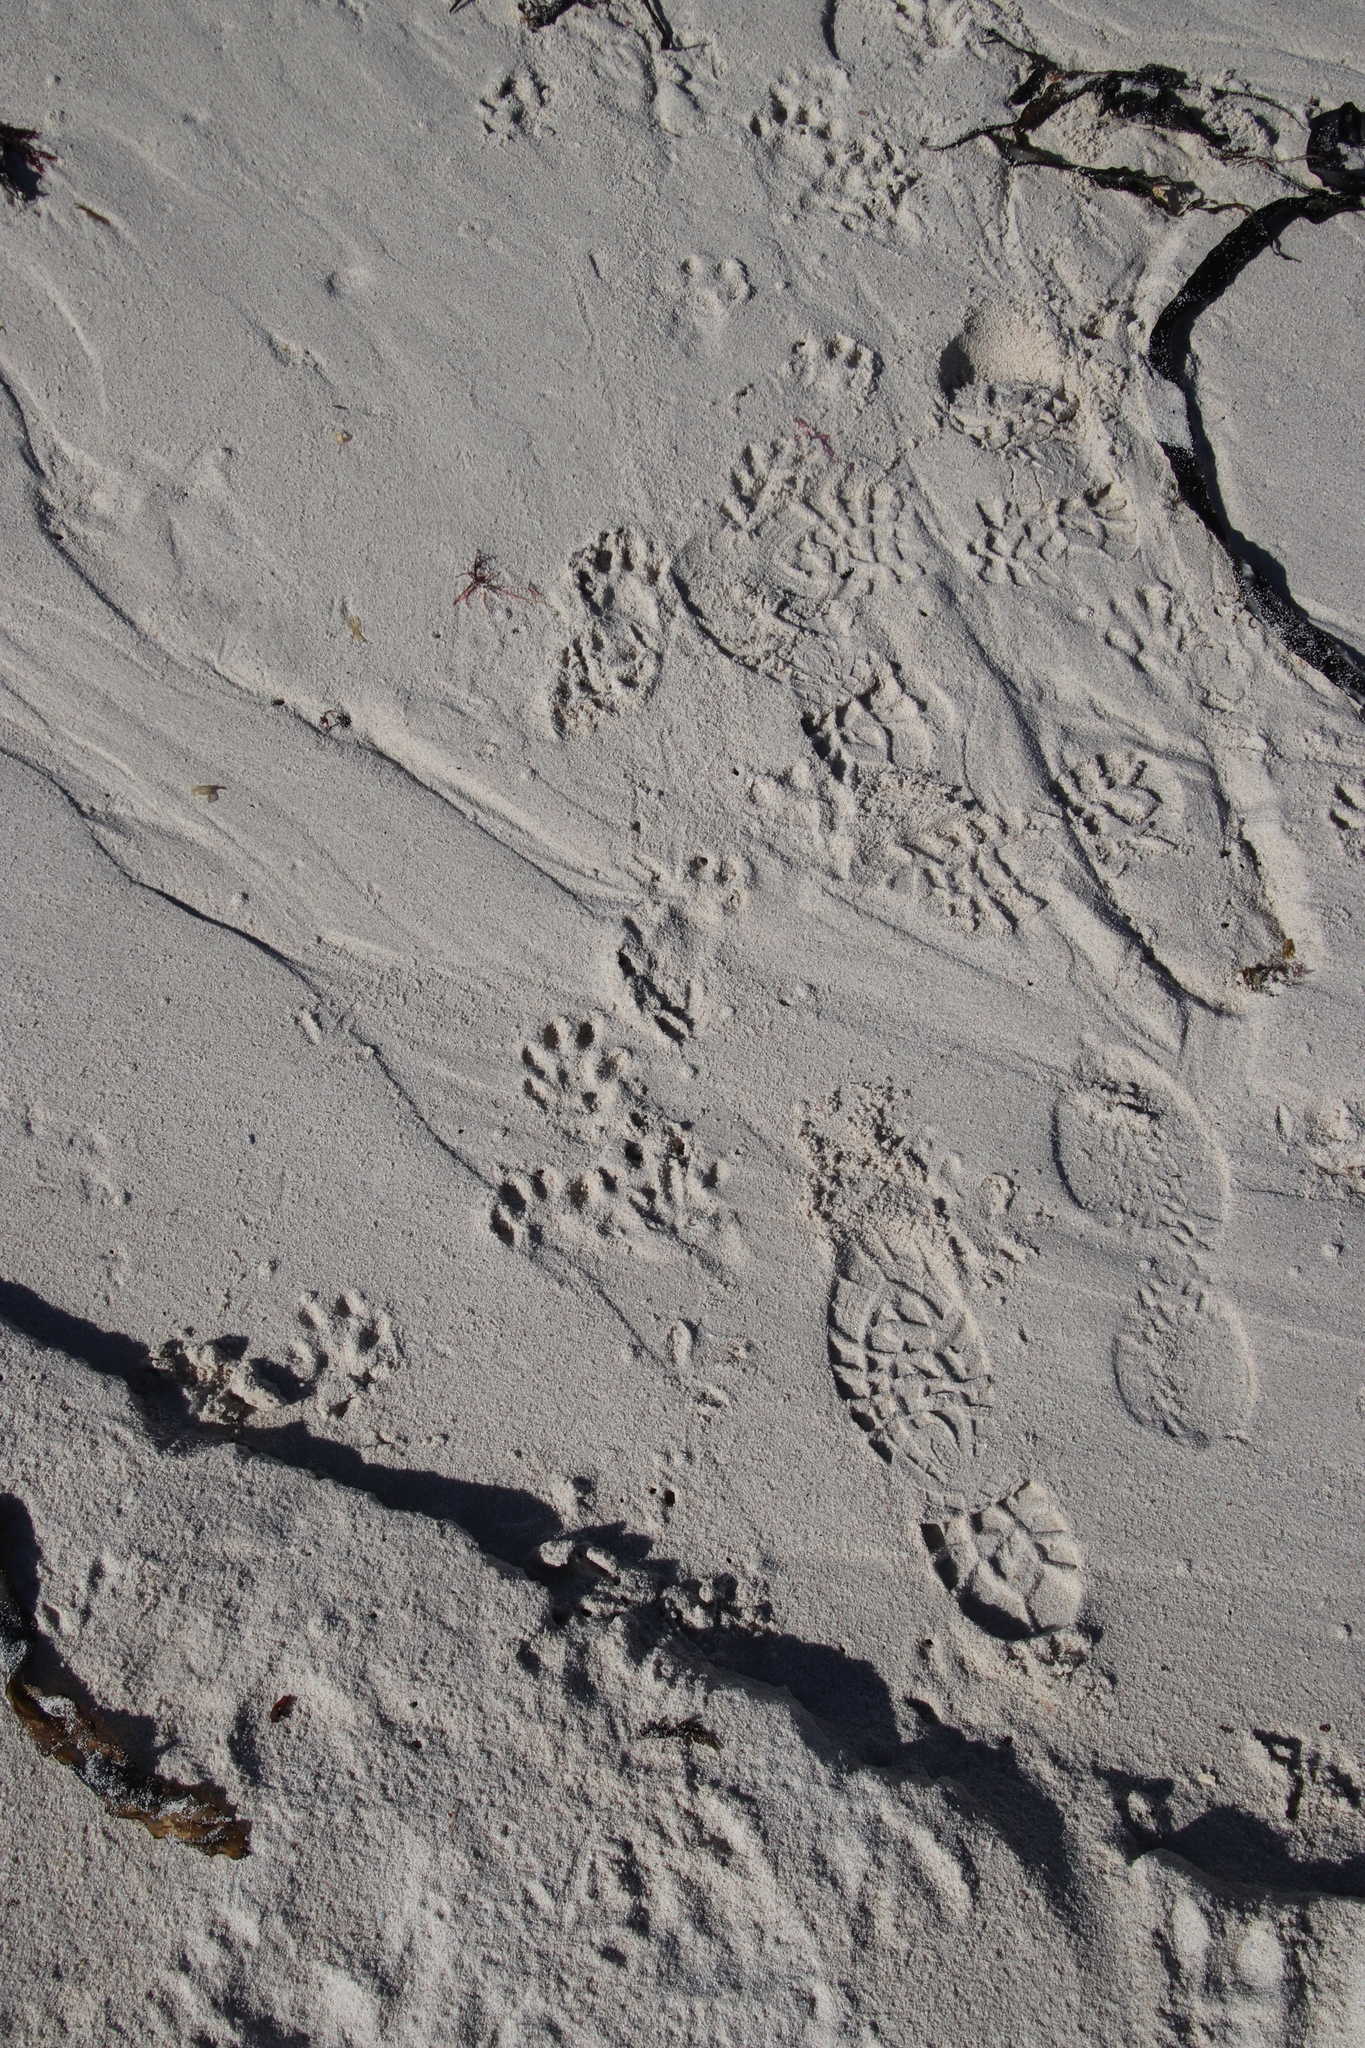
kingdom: Animalia
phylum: Chordata
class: Mammalia
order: Carnivora
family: Mustelidae
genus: Aonyx
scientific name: Aonyx capensis
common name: African clawless otter
